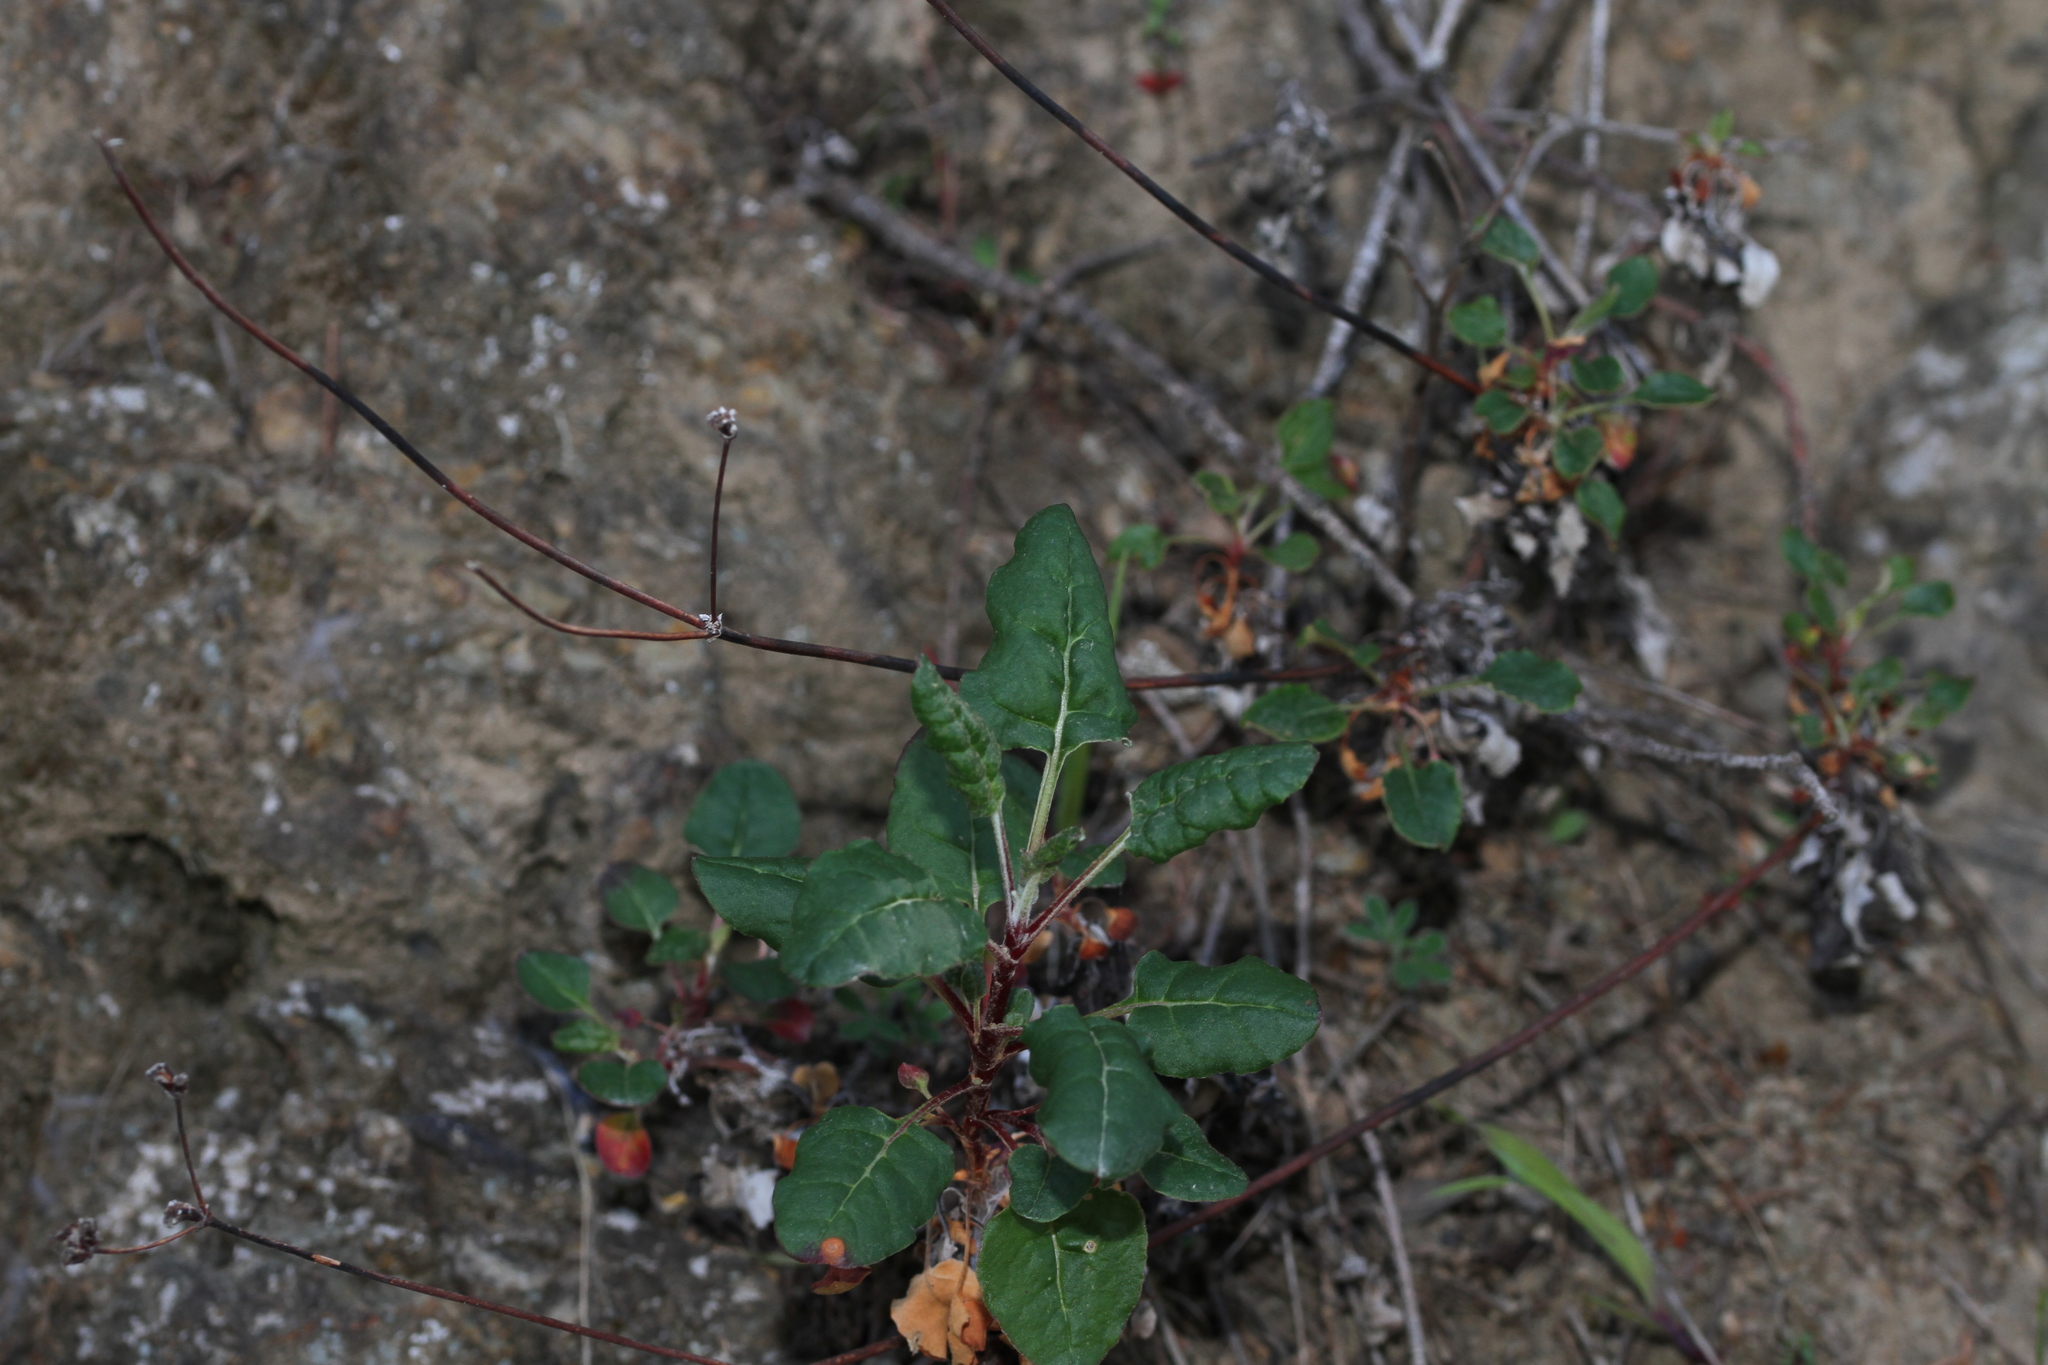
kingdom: Plantae
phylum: Tracheophyta
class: Magnoliopsida
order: Caryophyllales
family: Polygonaceae
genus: Eriogonum
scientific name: Eriogonum nudum
